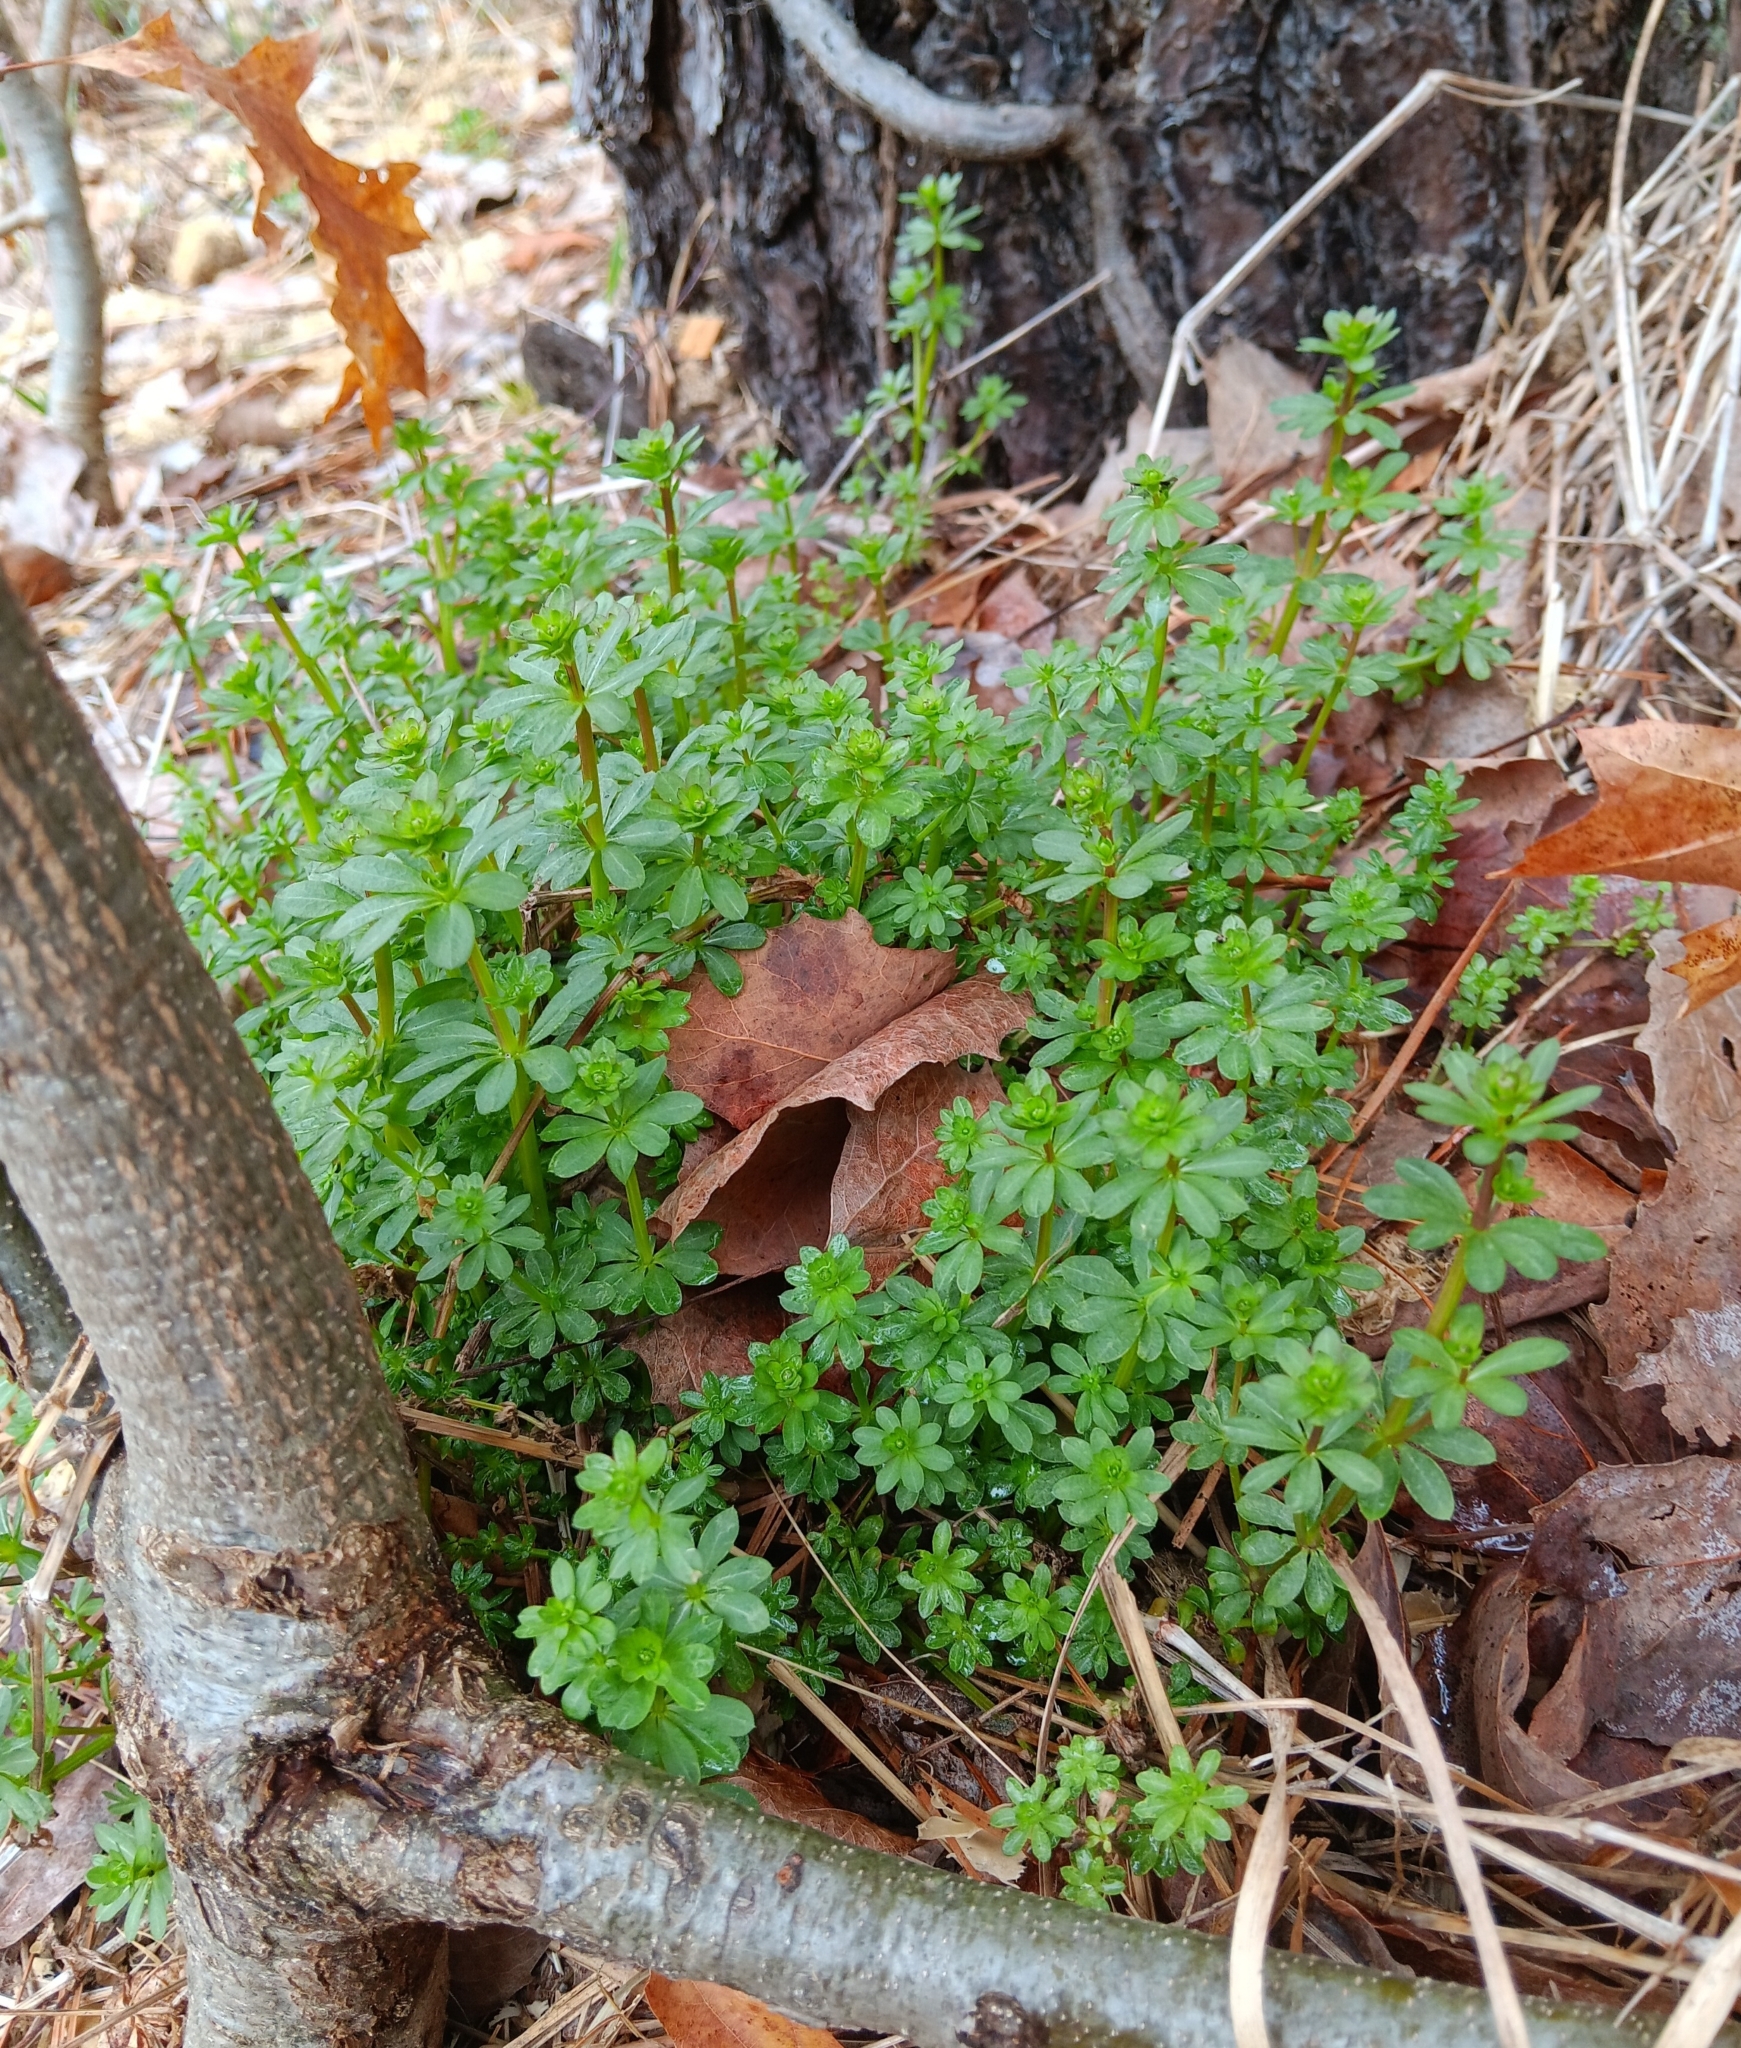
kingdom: Plantae
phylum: Tracheophyta
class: Magnoliopsida
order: Gentianales
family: Rubiaceae
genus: Galium
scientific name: Galium mollugo
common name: Hedge bedstraw
